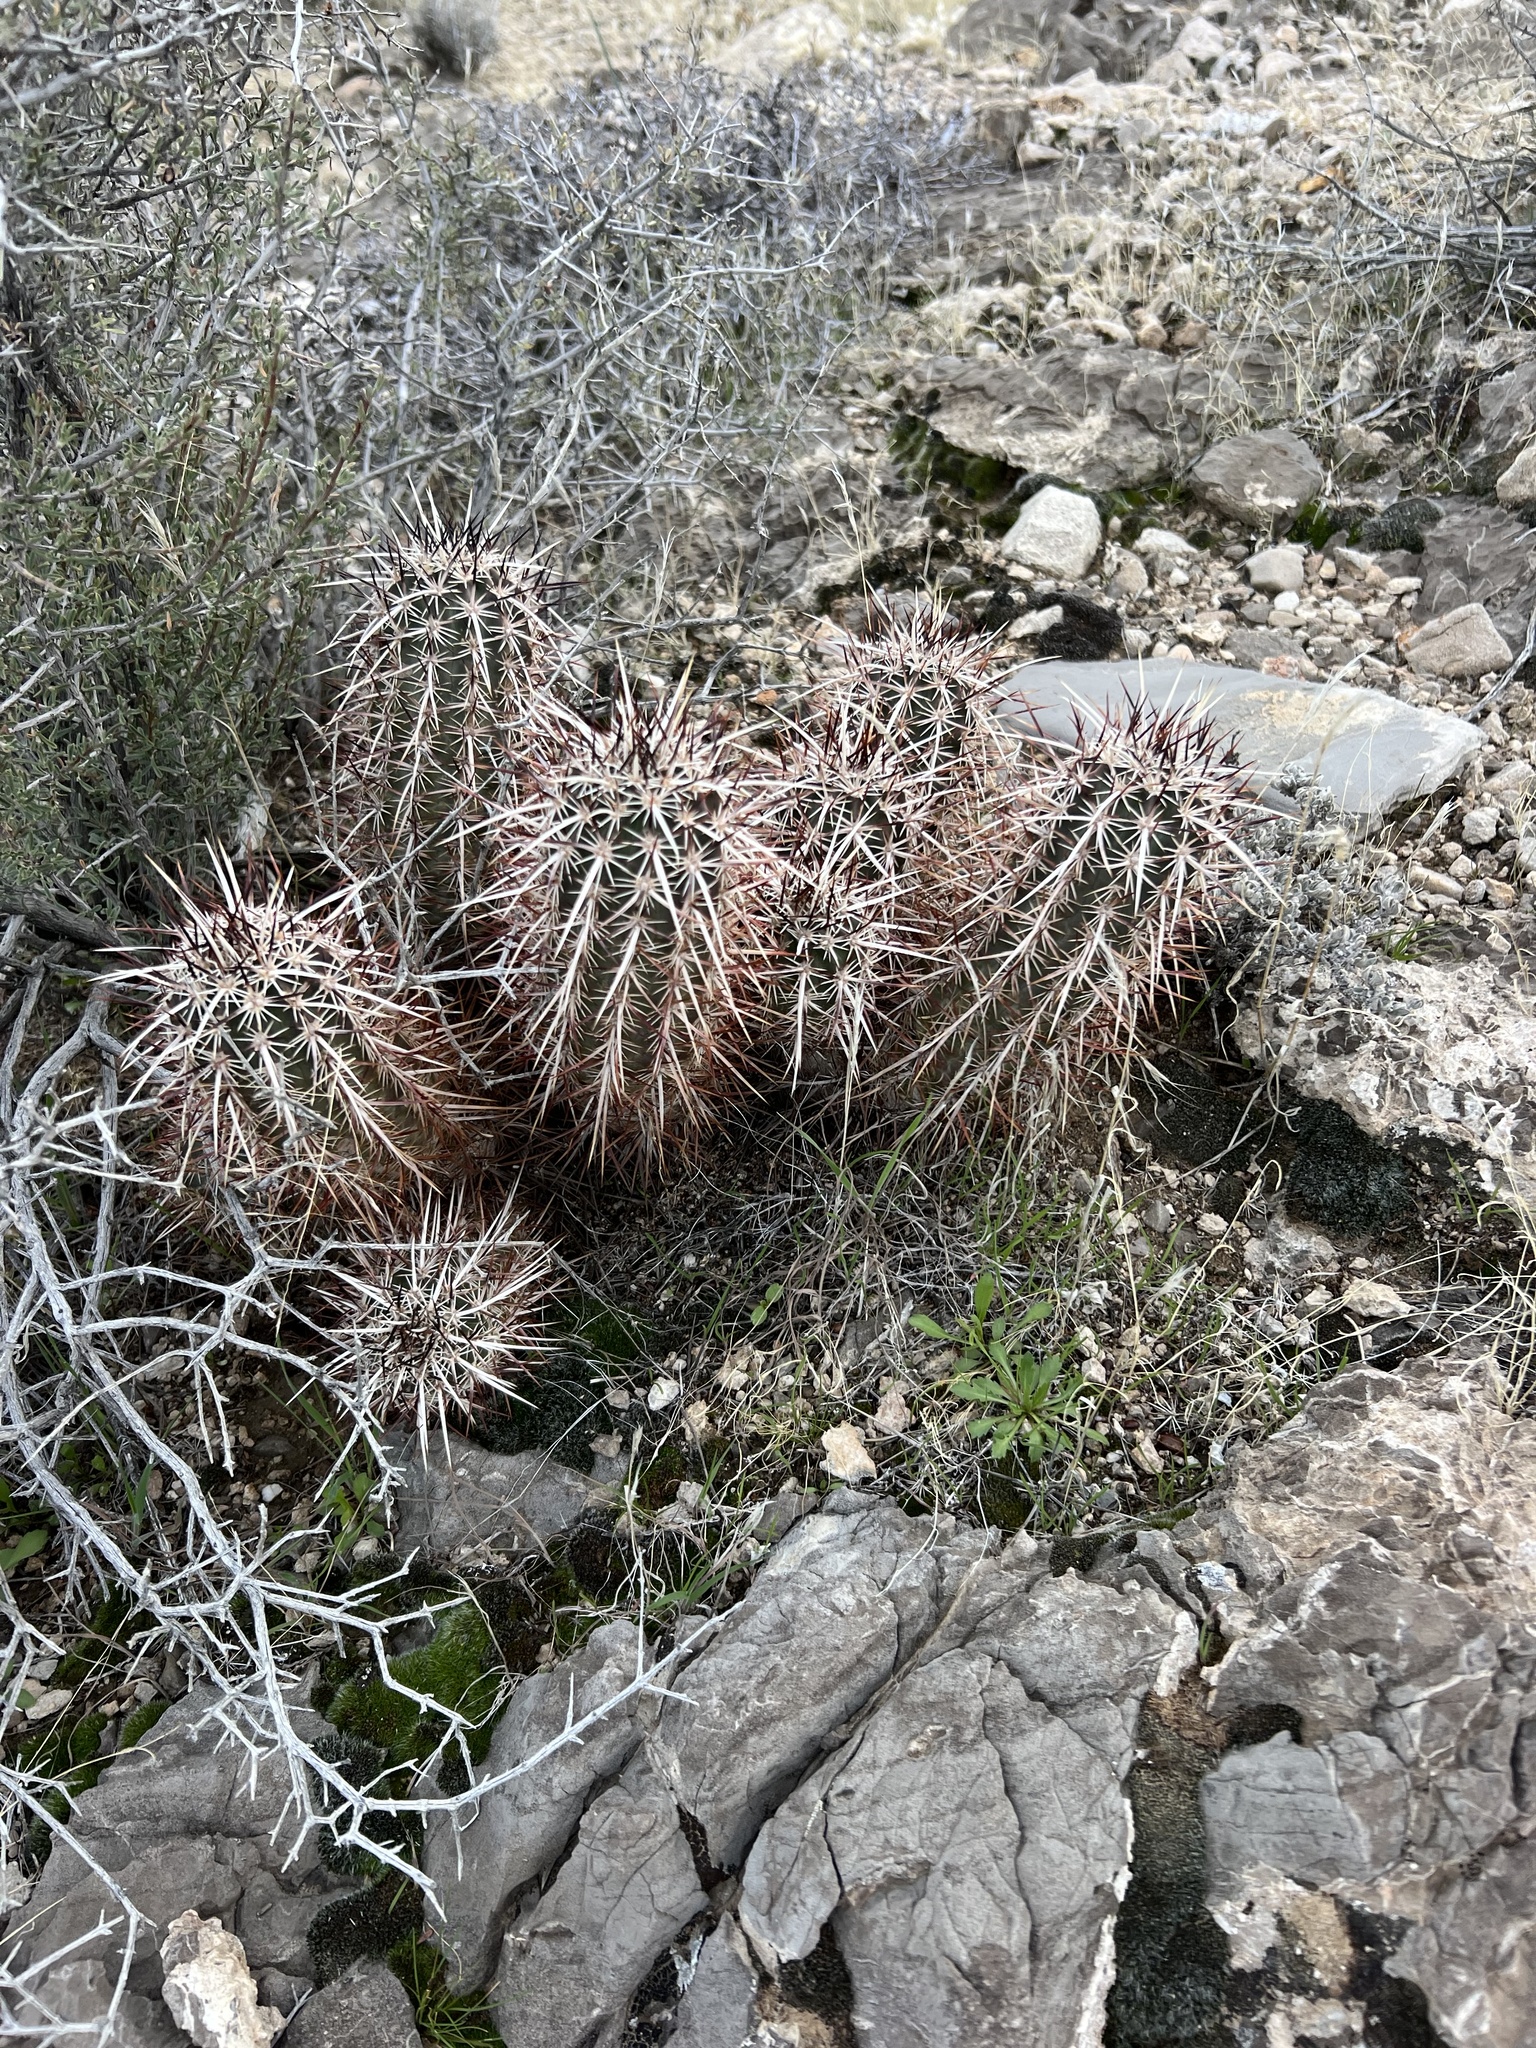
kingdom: Plantae
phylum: Tracheophyta
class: Magnoliopsida
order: Caryophyllales
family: Cactaceae
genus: Echinocereus
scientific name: Echinocereus engelmannii
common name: Engelmann's hedgehog cactus
